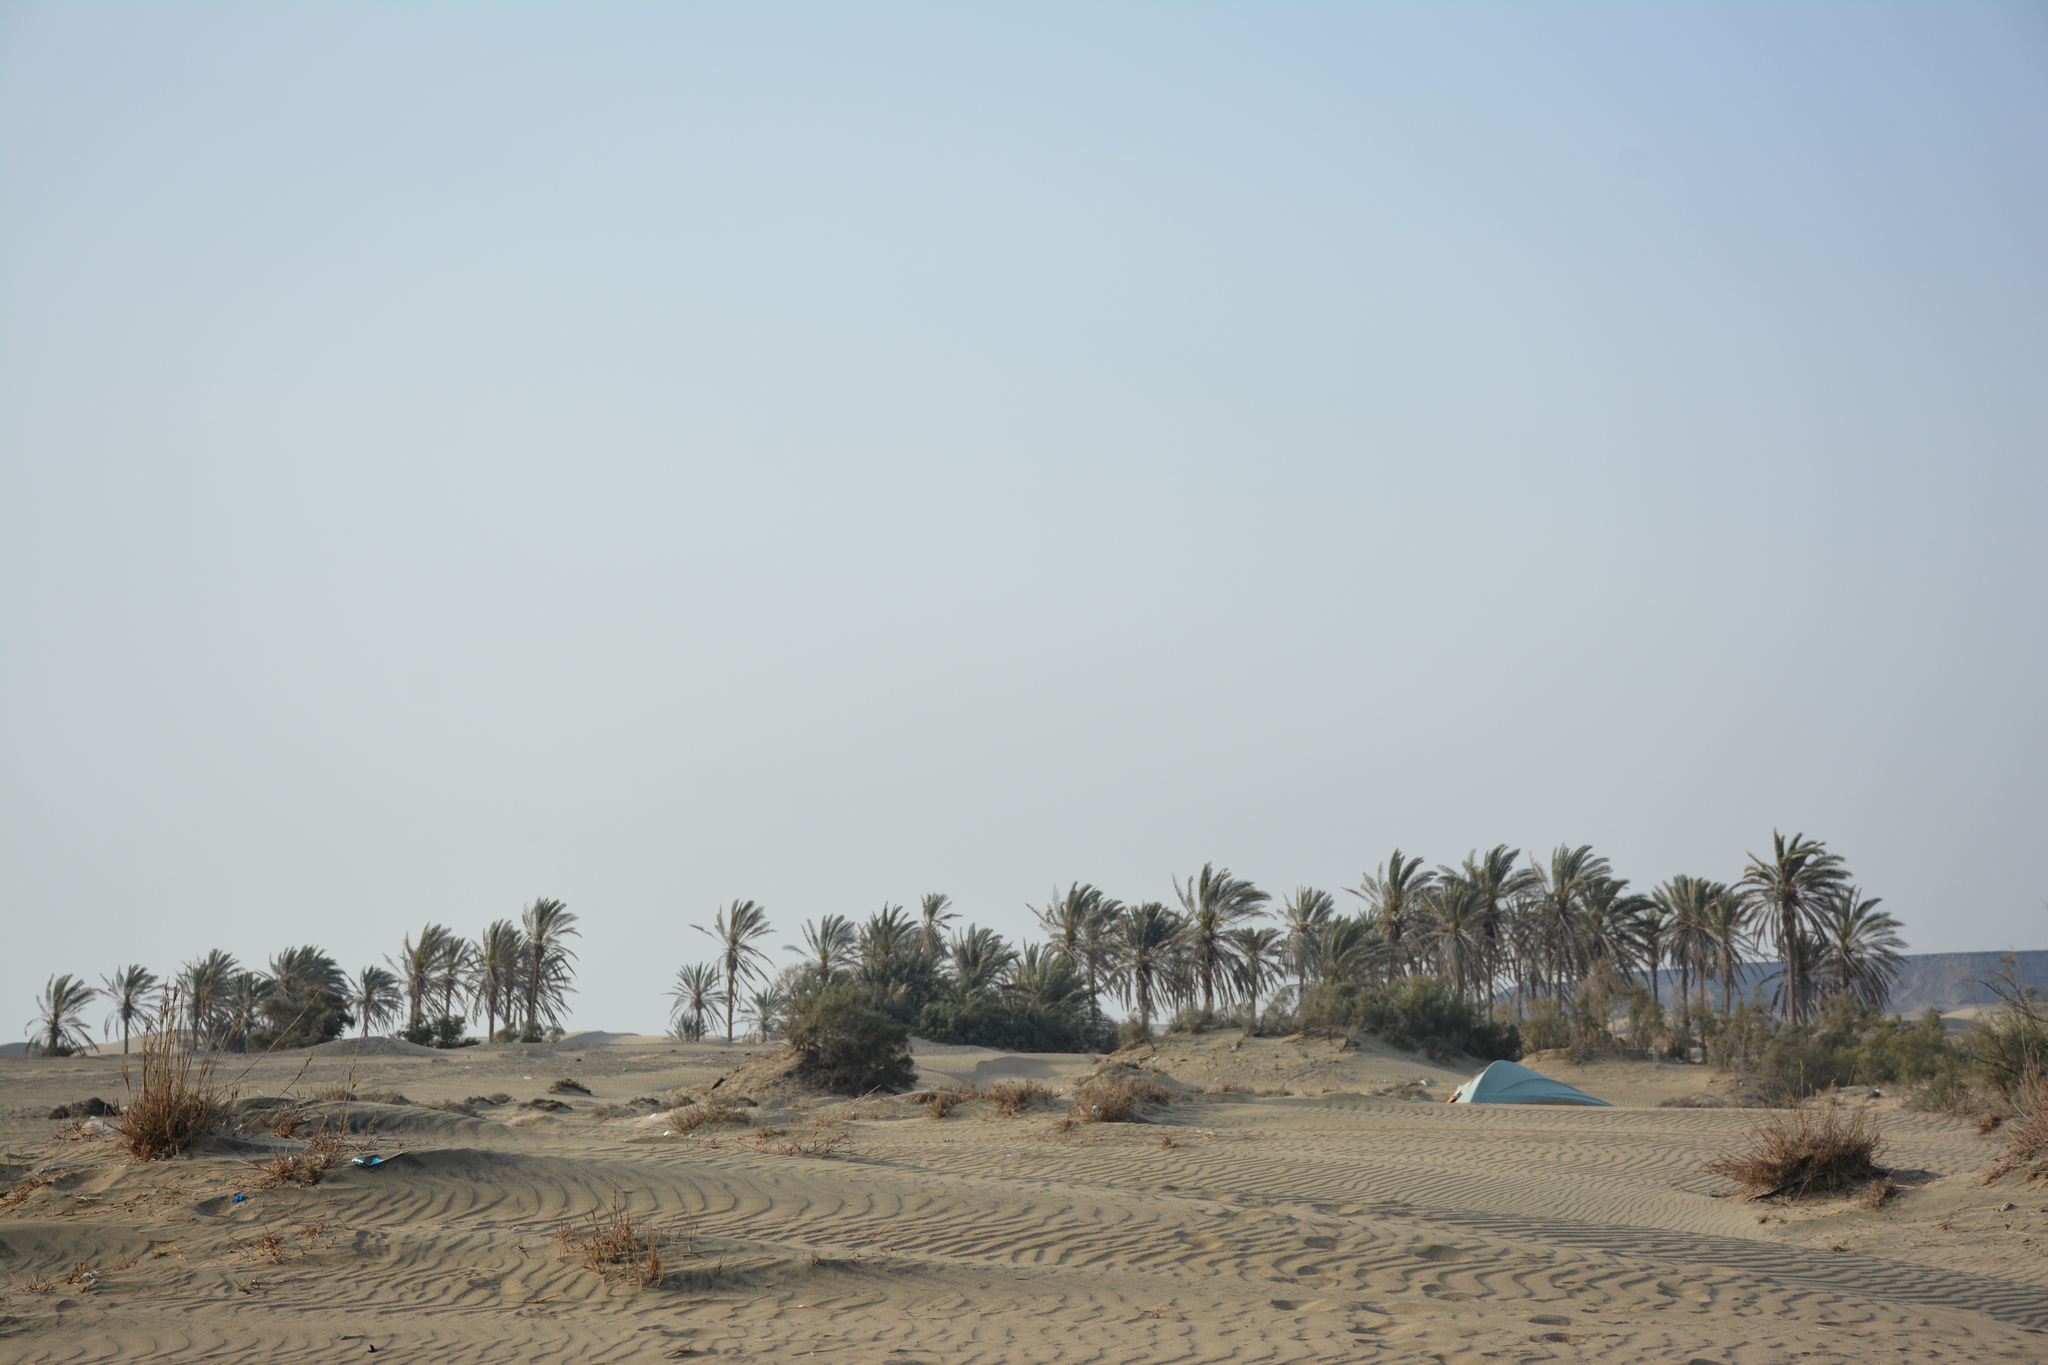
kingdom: Plantae
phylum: Tracheophyta
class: Liliopsida
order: Arecales
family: Arecaceae
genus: Phoenix
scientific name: Phoenix dactylifera
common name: Date palm
